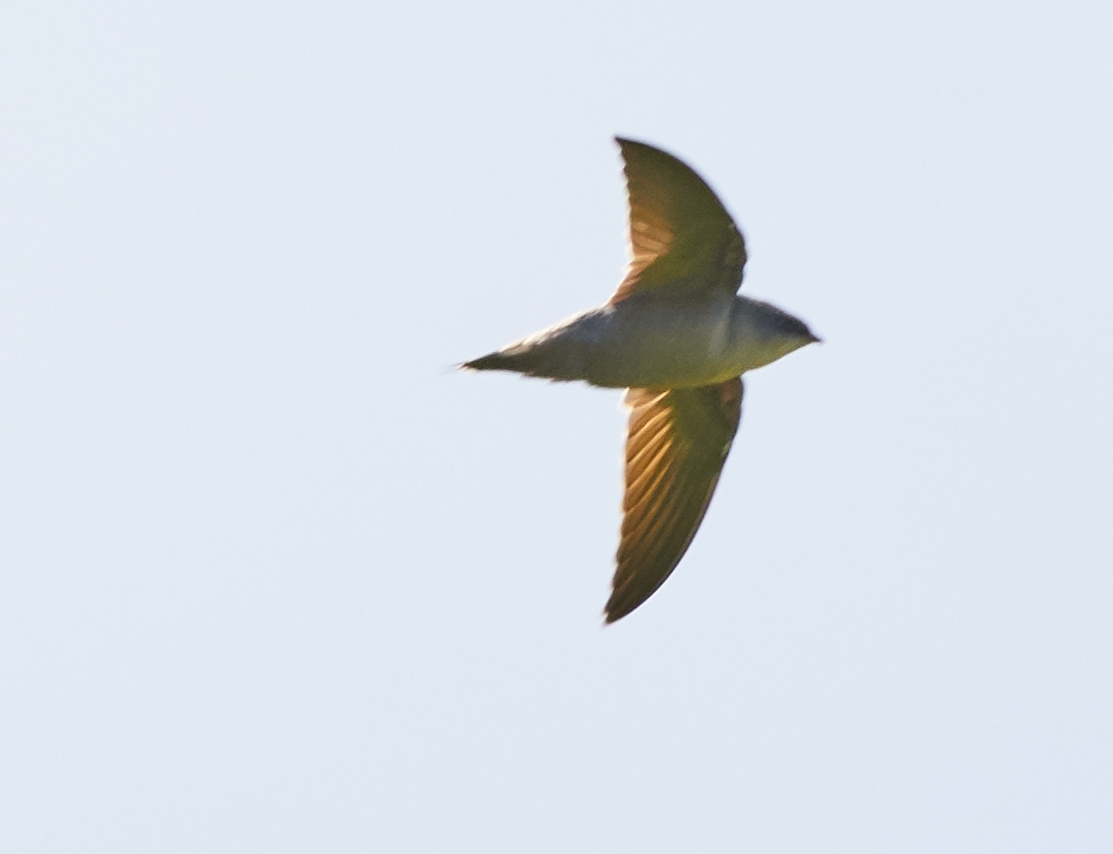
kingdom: Animalia
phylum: Chordata
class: Aves
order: Apodiformes
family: Apodidae
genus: Chaetura
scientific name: Chaetura pelagica
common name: Chimney swift
